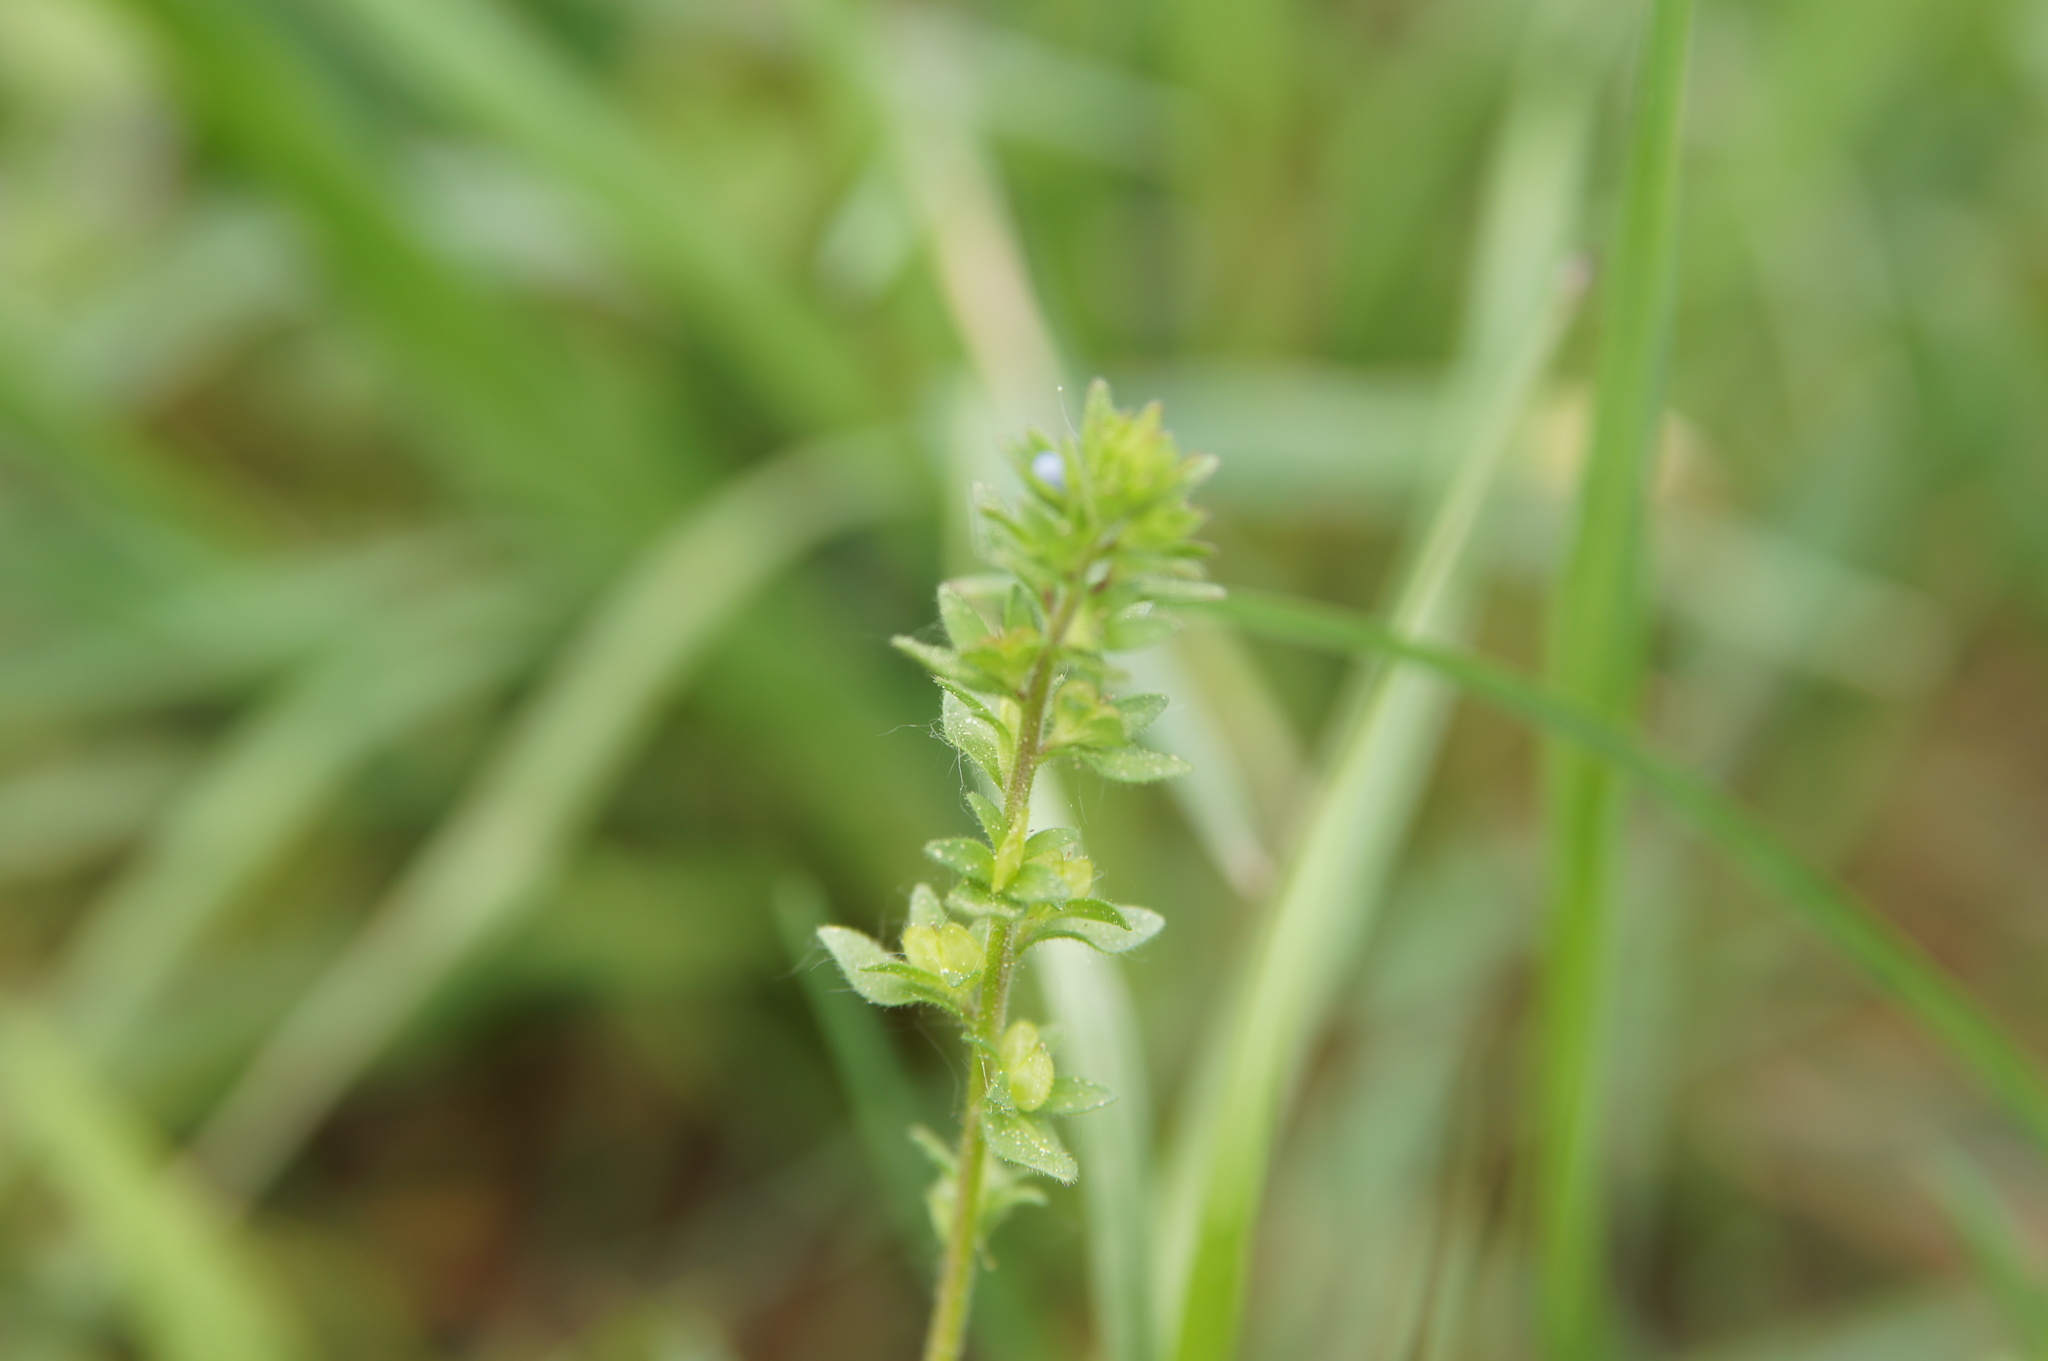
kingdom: Plantae
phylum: Tracheophyta
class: Magnoliopsida
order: Lamiales
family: Plantaginaceae
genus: Veronica
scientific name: Veronica arvensis
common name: Corn speedwell
